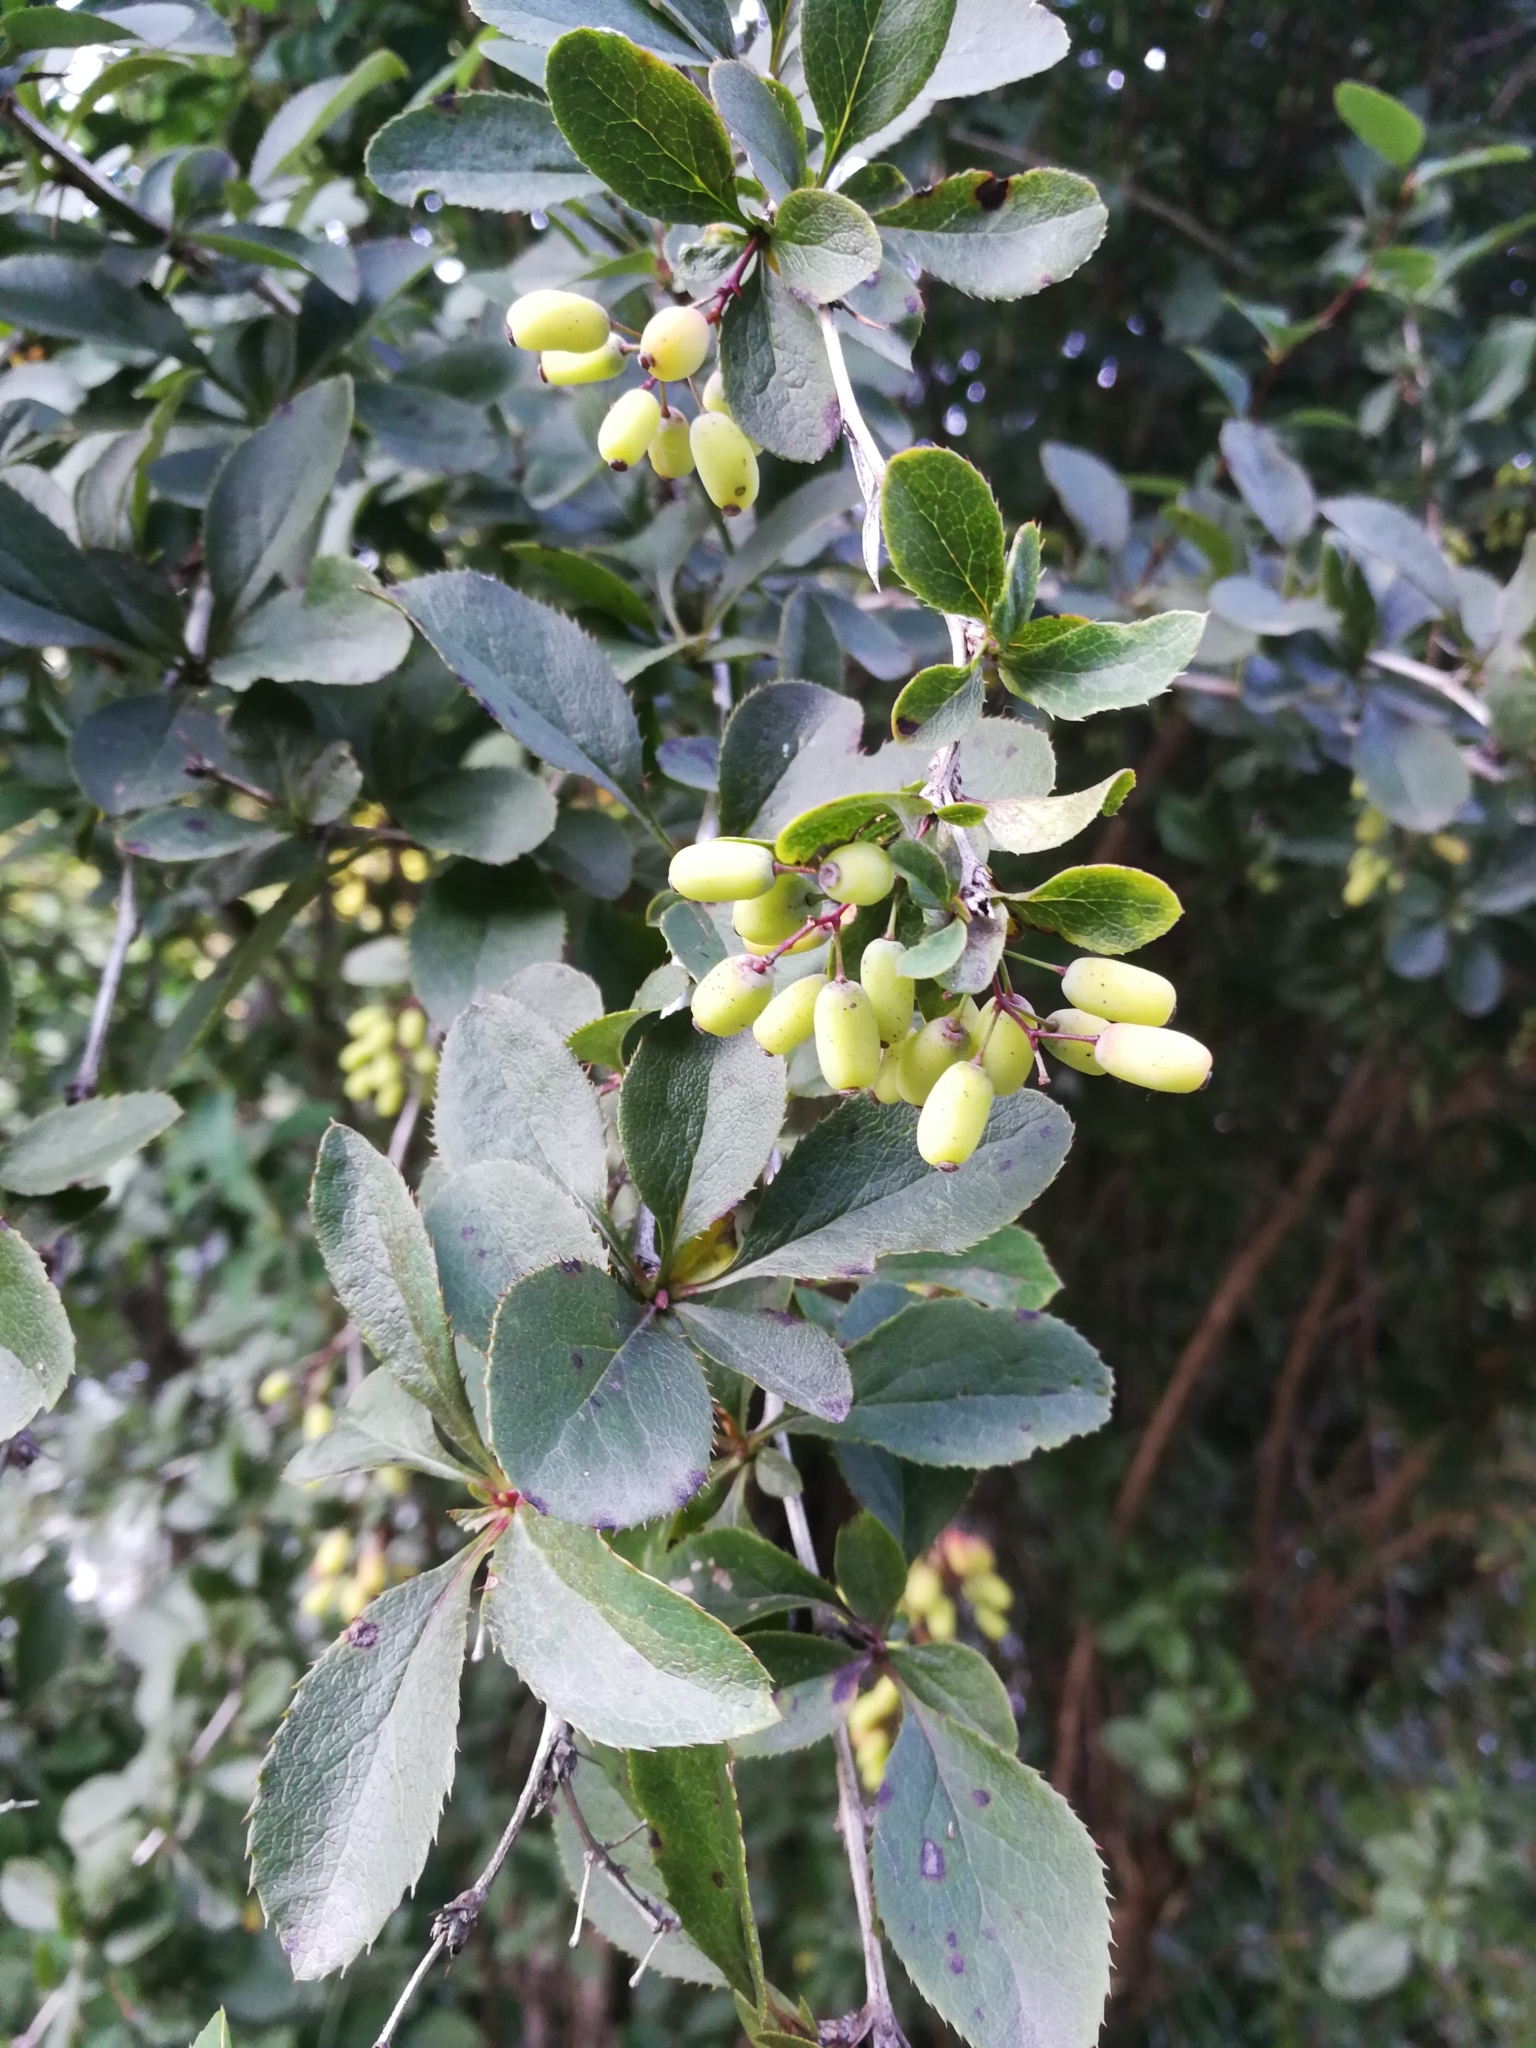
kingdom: Plantae
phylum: Tracheophyta
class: Magnoliopsida
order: Ranunculales
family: Berberidaceae
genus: Berberis
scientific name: Berberis vulgaris
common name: Barberry
